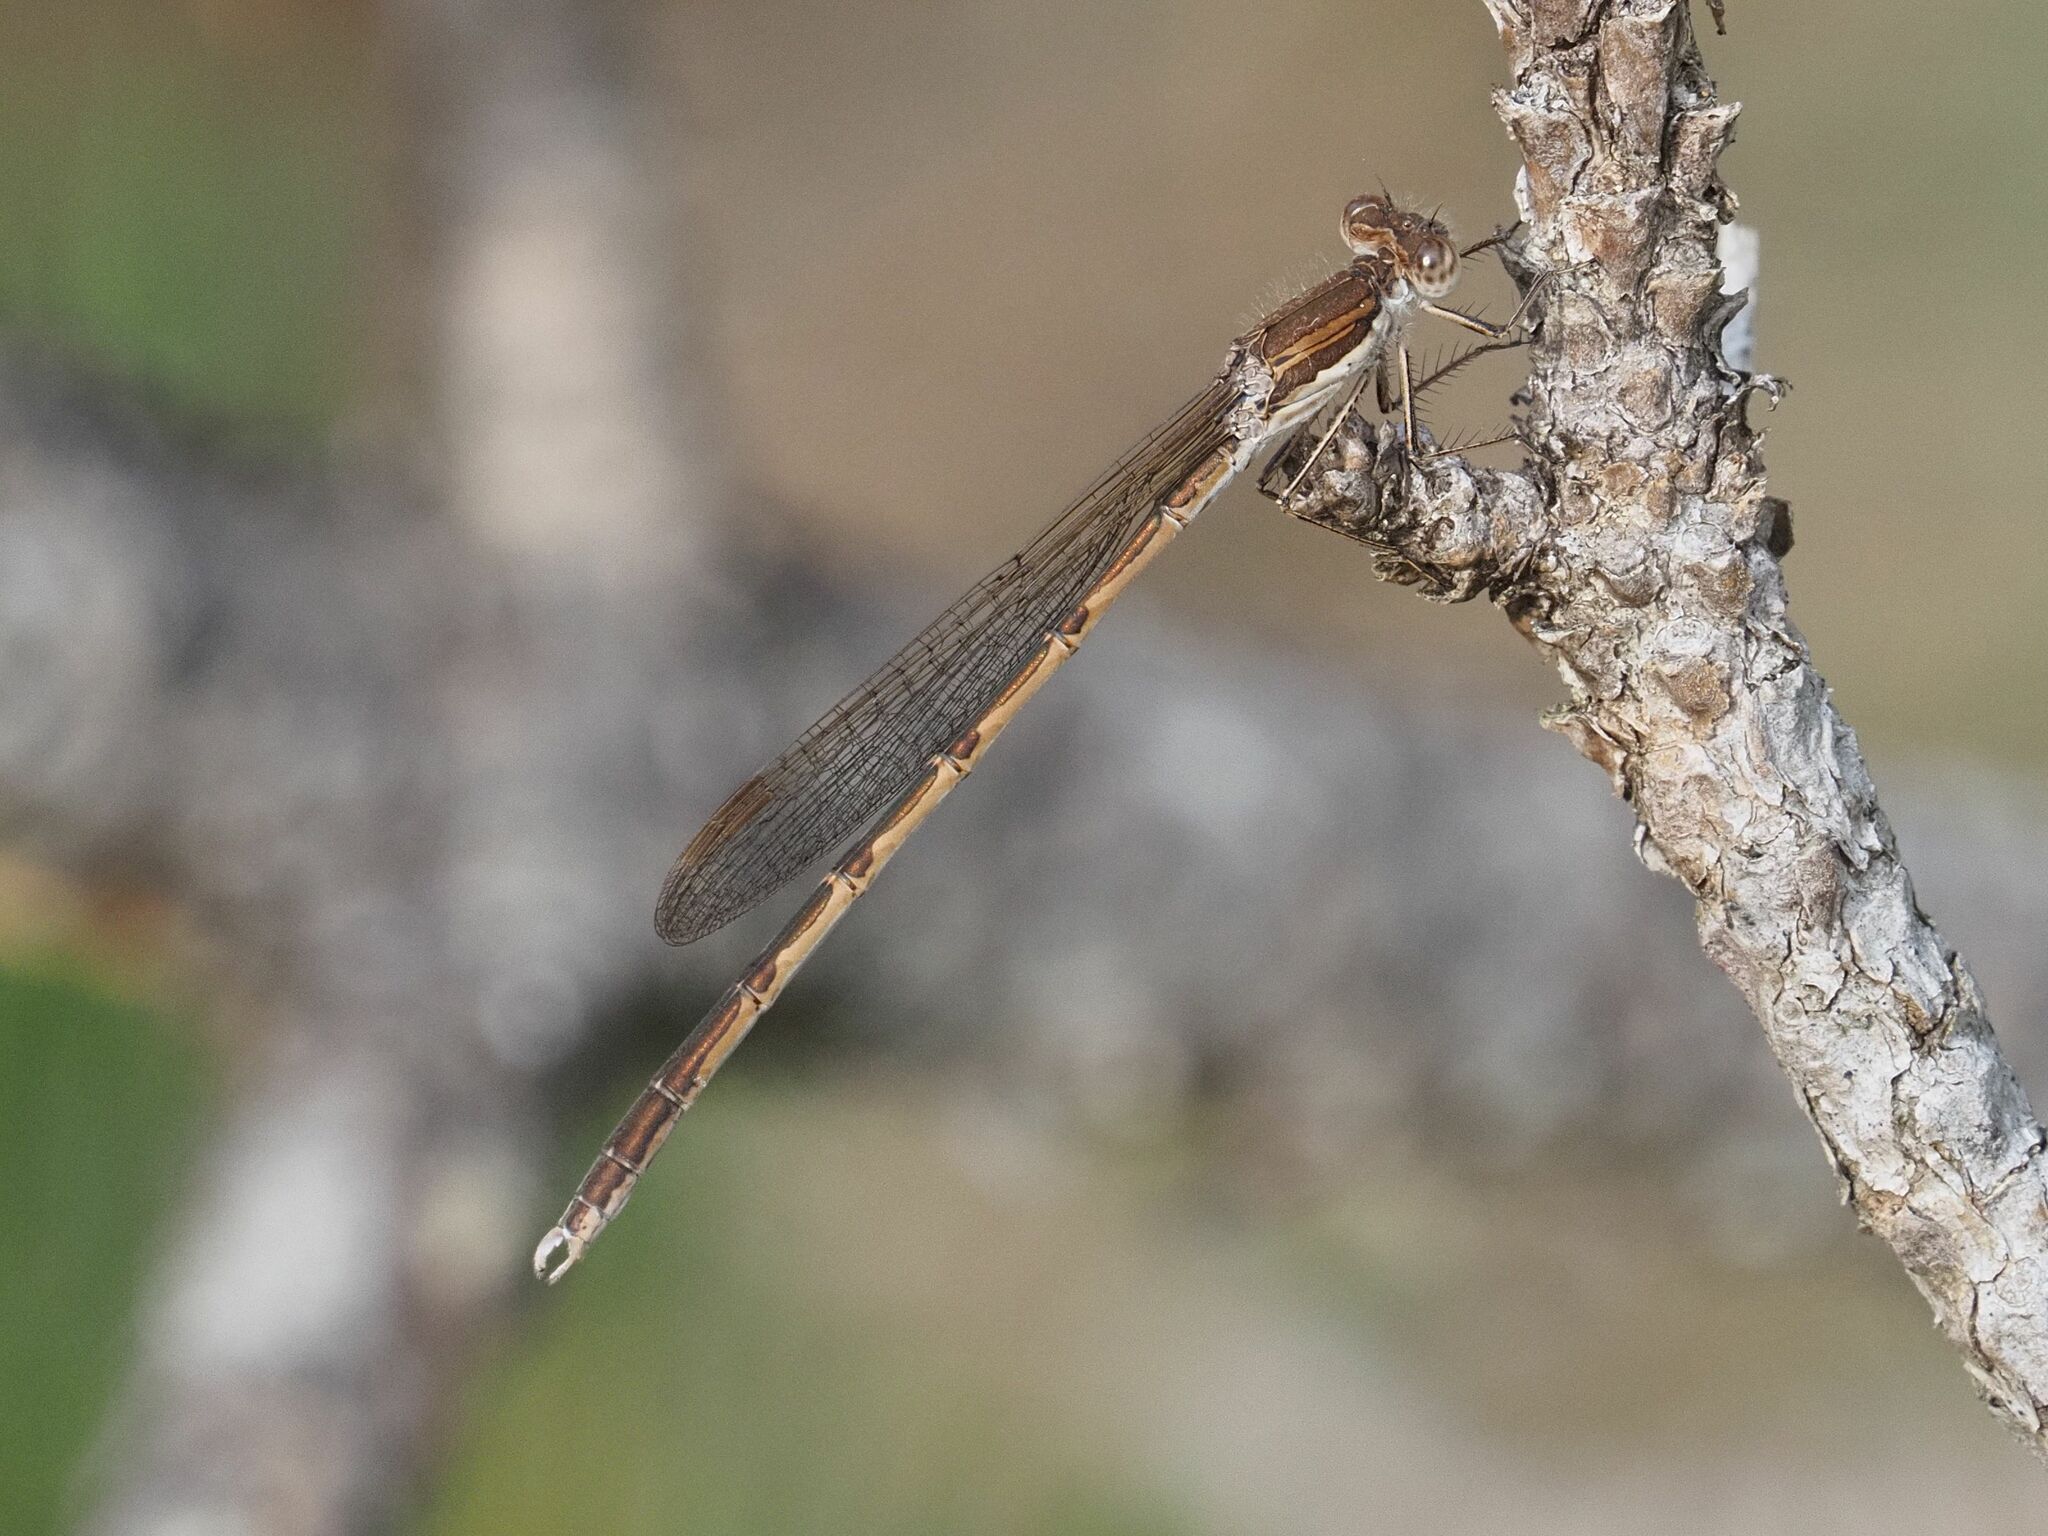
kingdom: Animalia
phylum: Arthropoda
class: Insecta
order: Odonata
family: Lestidae
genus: Sympecma
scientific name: Sympecma fusca
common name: Common winter damsel
